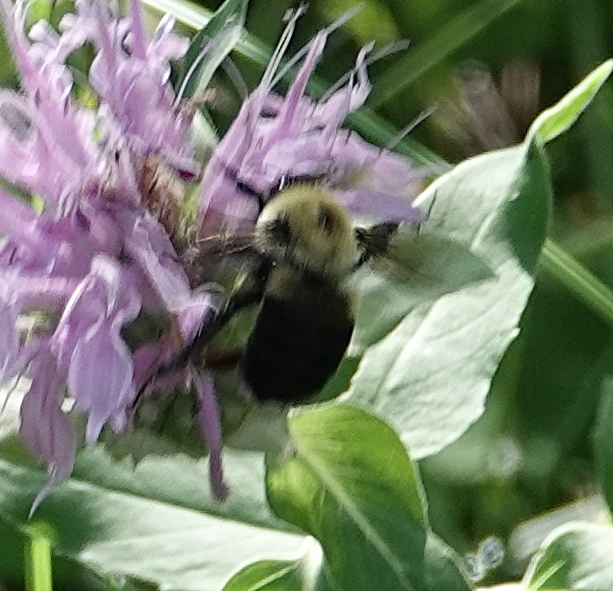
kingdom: Animalia
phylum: Arthropoda
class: Insecta
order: Hymenoptera
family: Apidae
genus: Bombus
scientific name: Bombus griseocollis
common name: Brown-belted bumble bee
